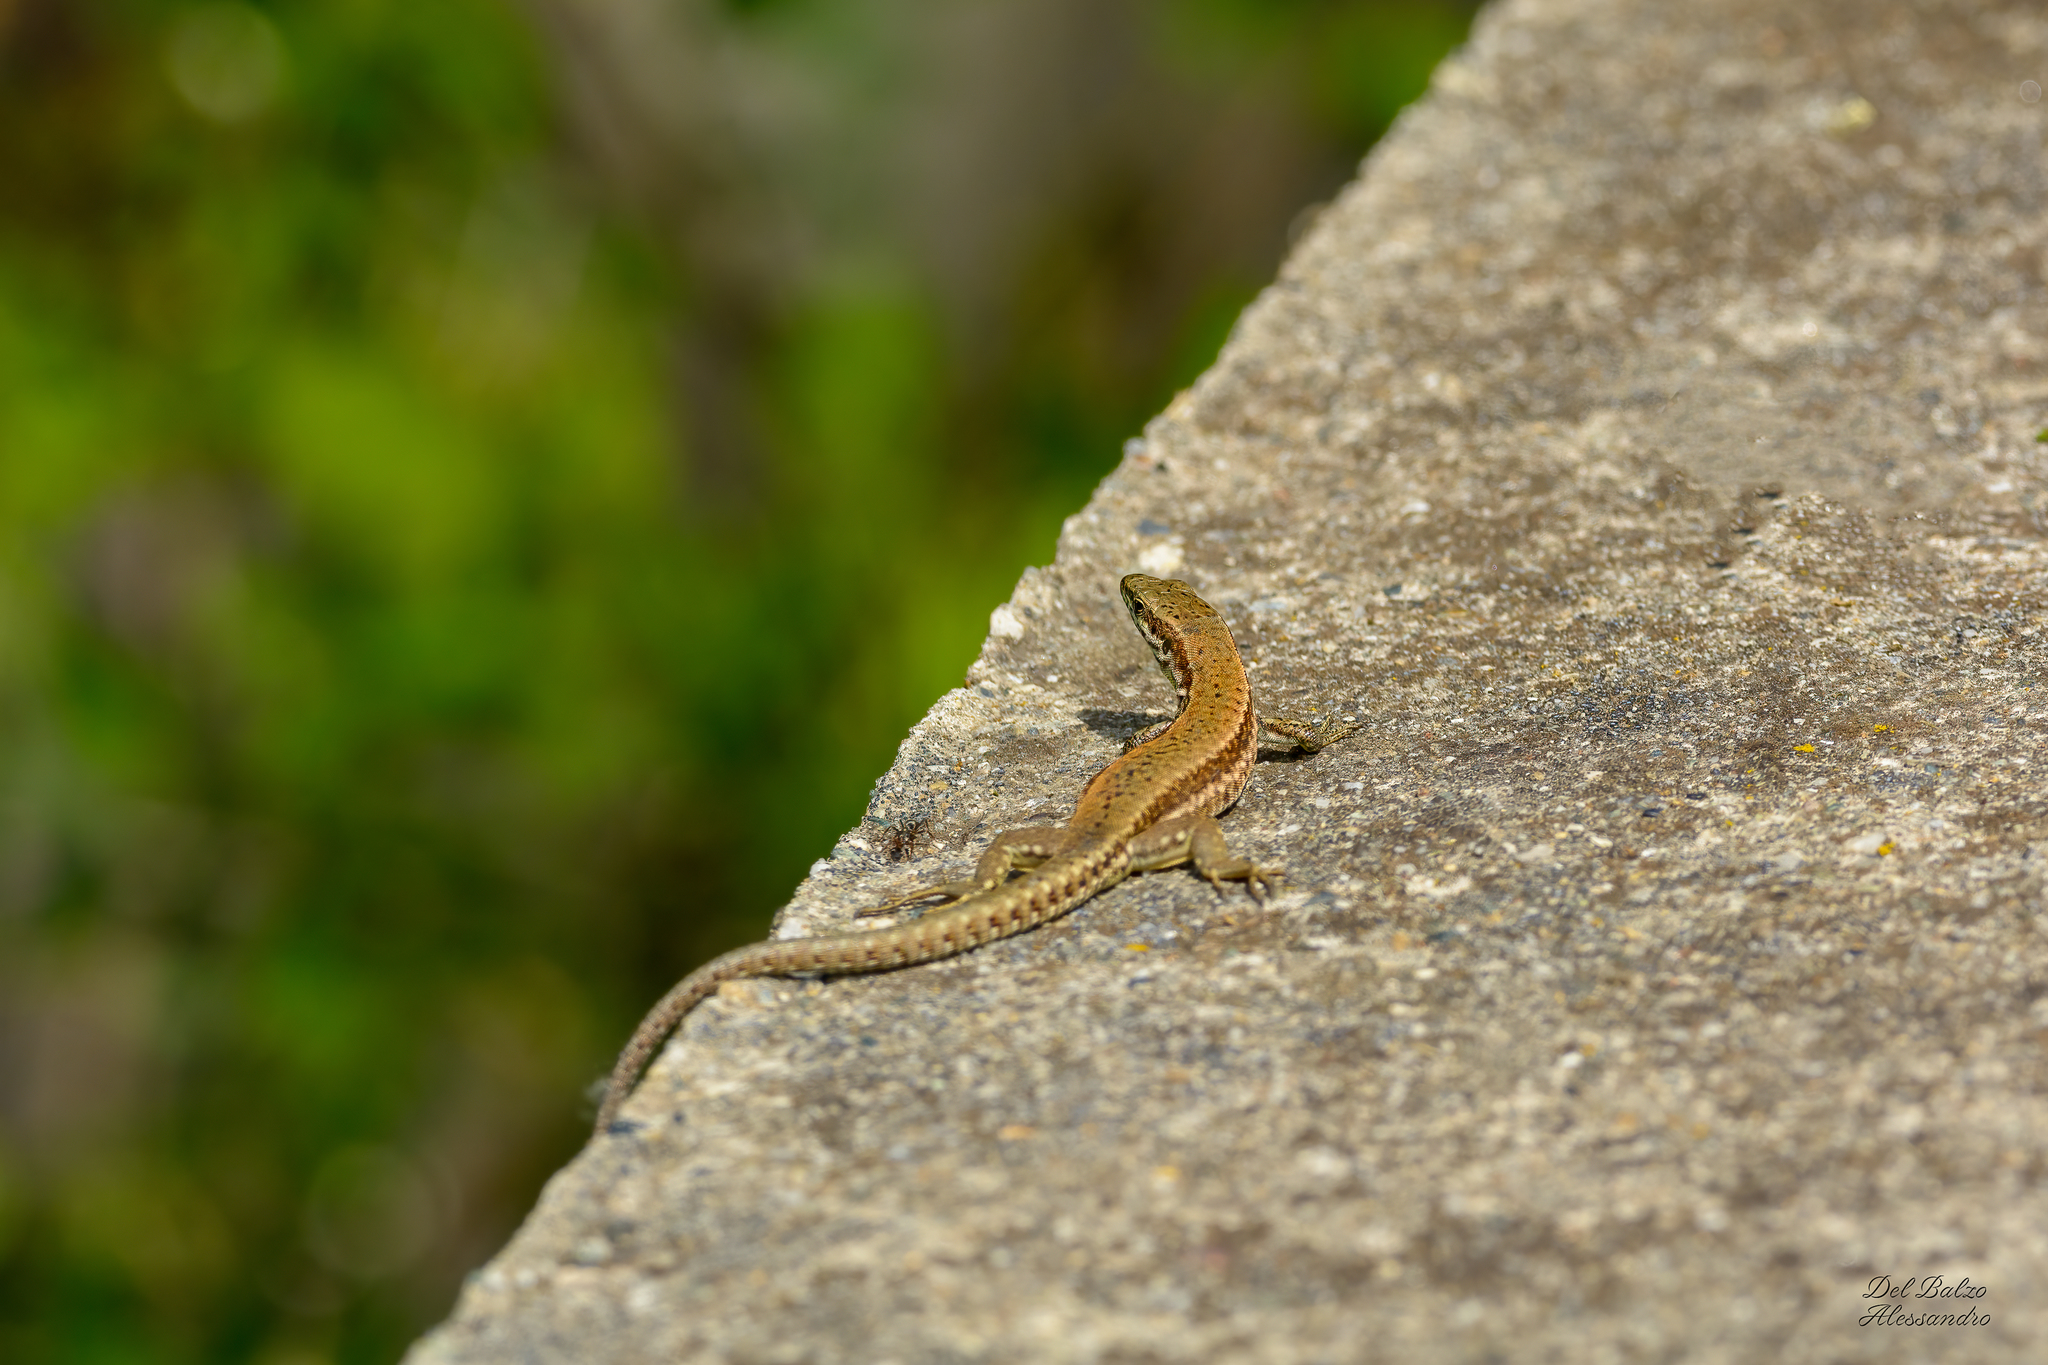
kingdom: Animalia
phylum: Chordata
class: Squamata
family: Lacertidae
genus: Podarcis
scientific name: Podarcis muralis
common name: Common wall lizard
